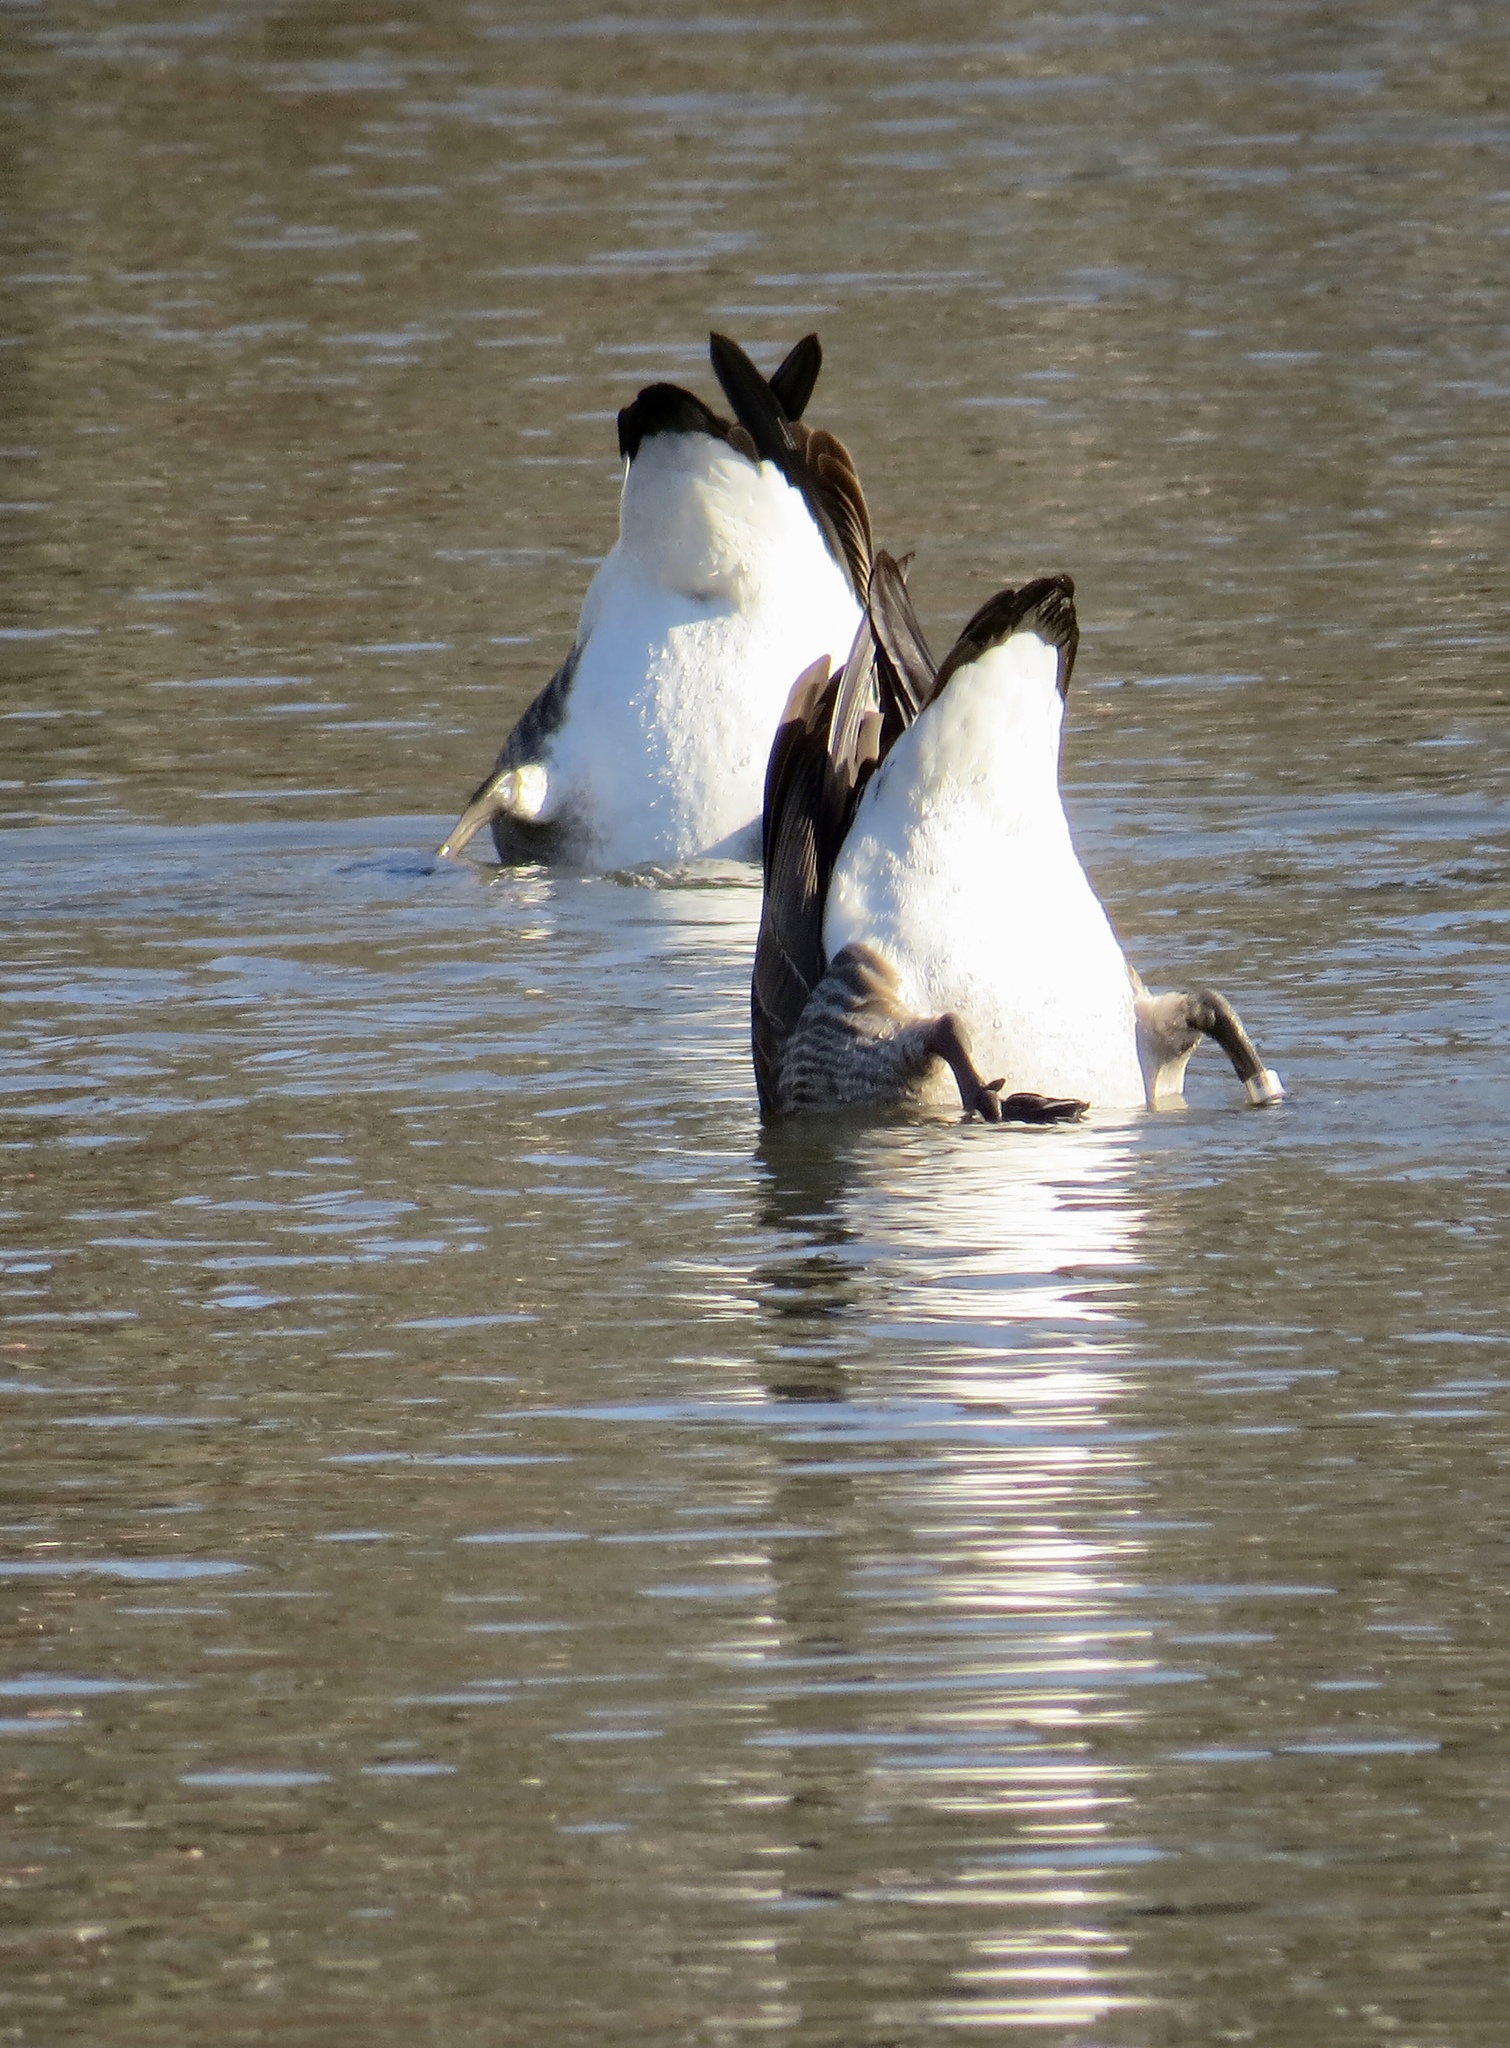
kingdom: Animalia
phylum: Chordata
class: Aves
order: Anseriformes
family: Anatidae
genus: Branta
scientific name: Branta canadensis
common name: Canada goose
